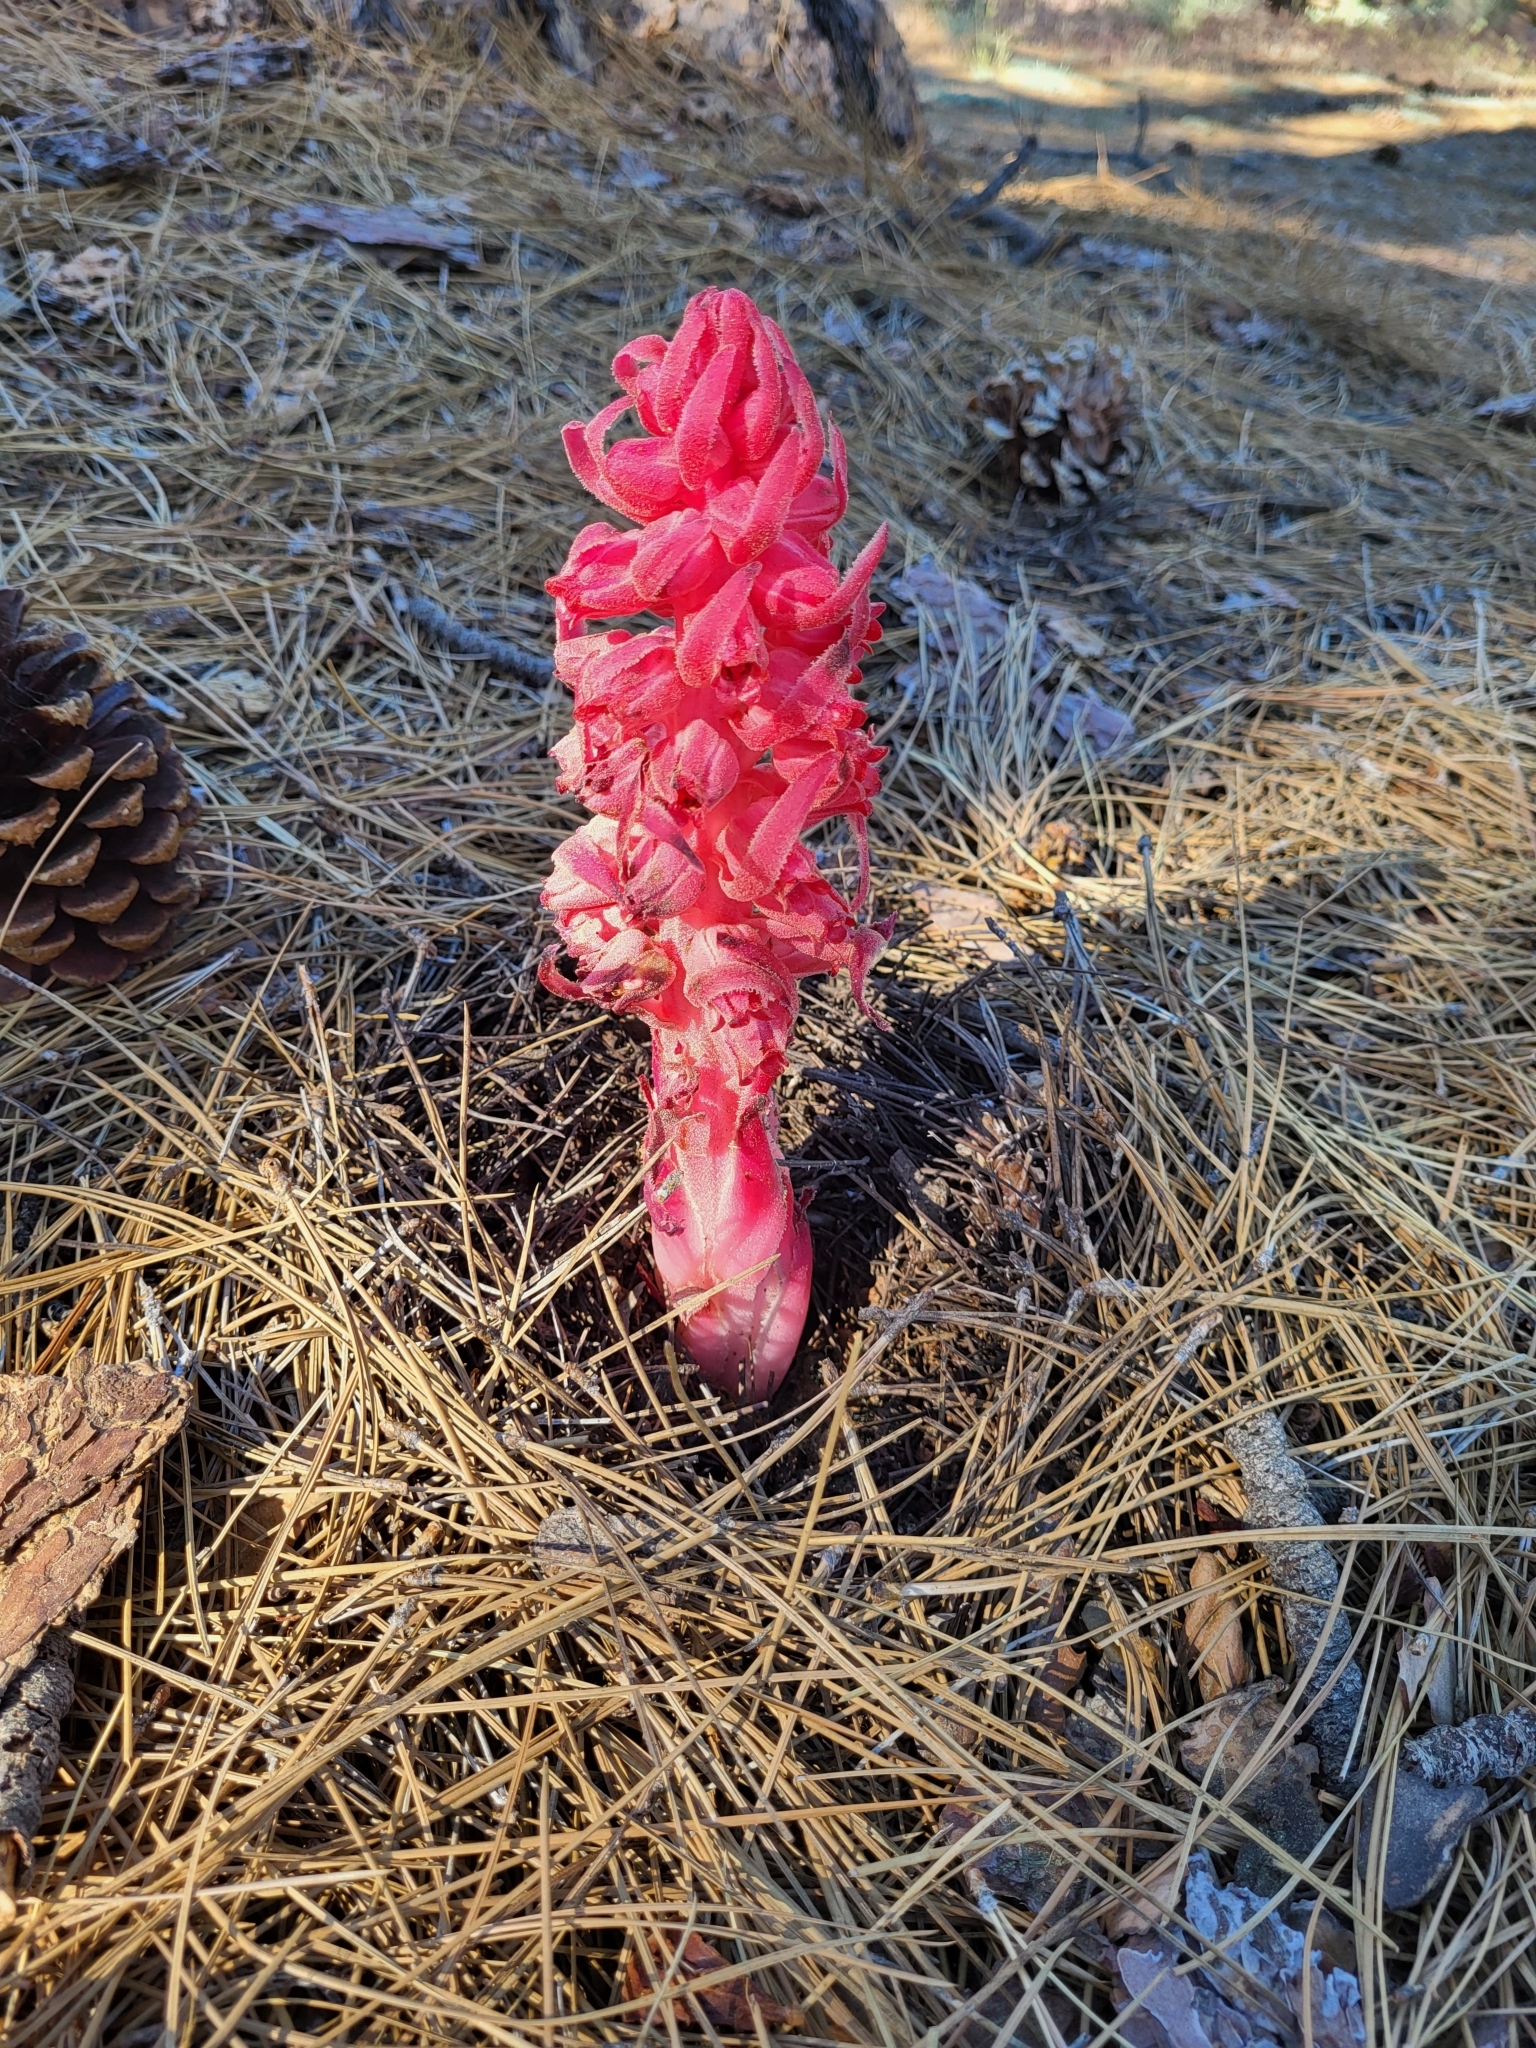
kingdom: Plantae
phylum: Tracheophyta
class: Magnoliopsida
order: Ericales
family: Ericaceae
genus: Sarcodes
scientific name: Sarcodes sanguinea
